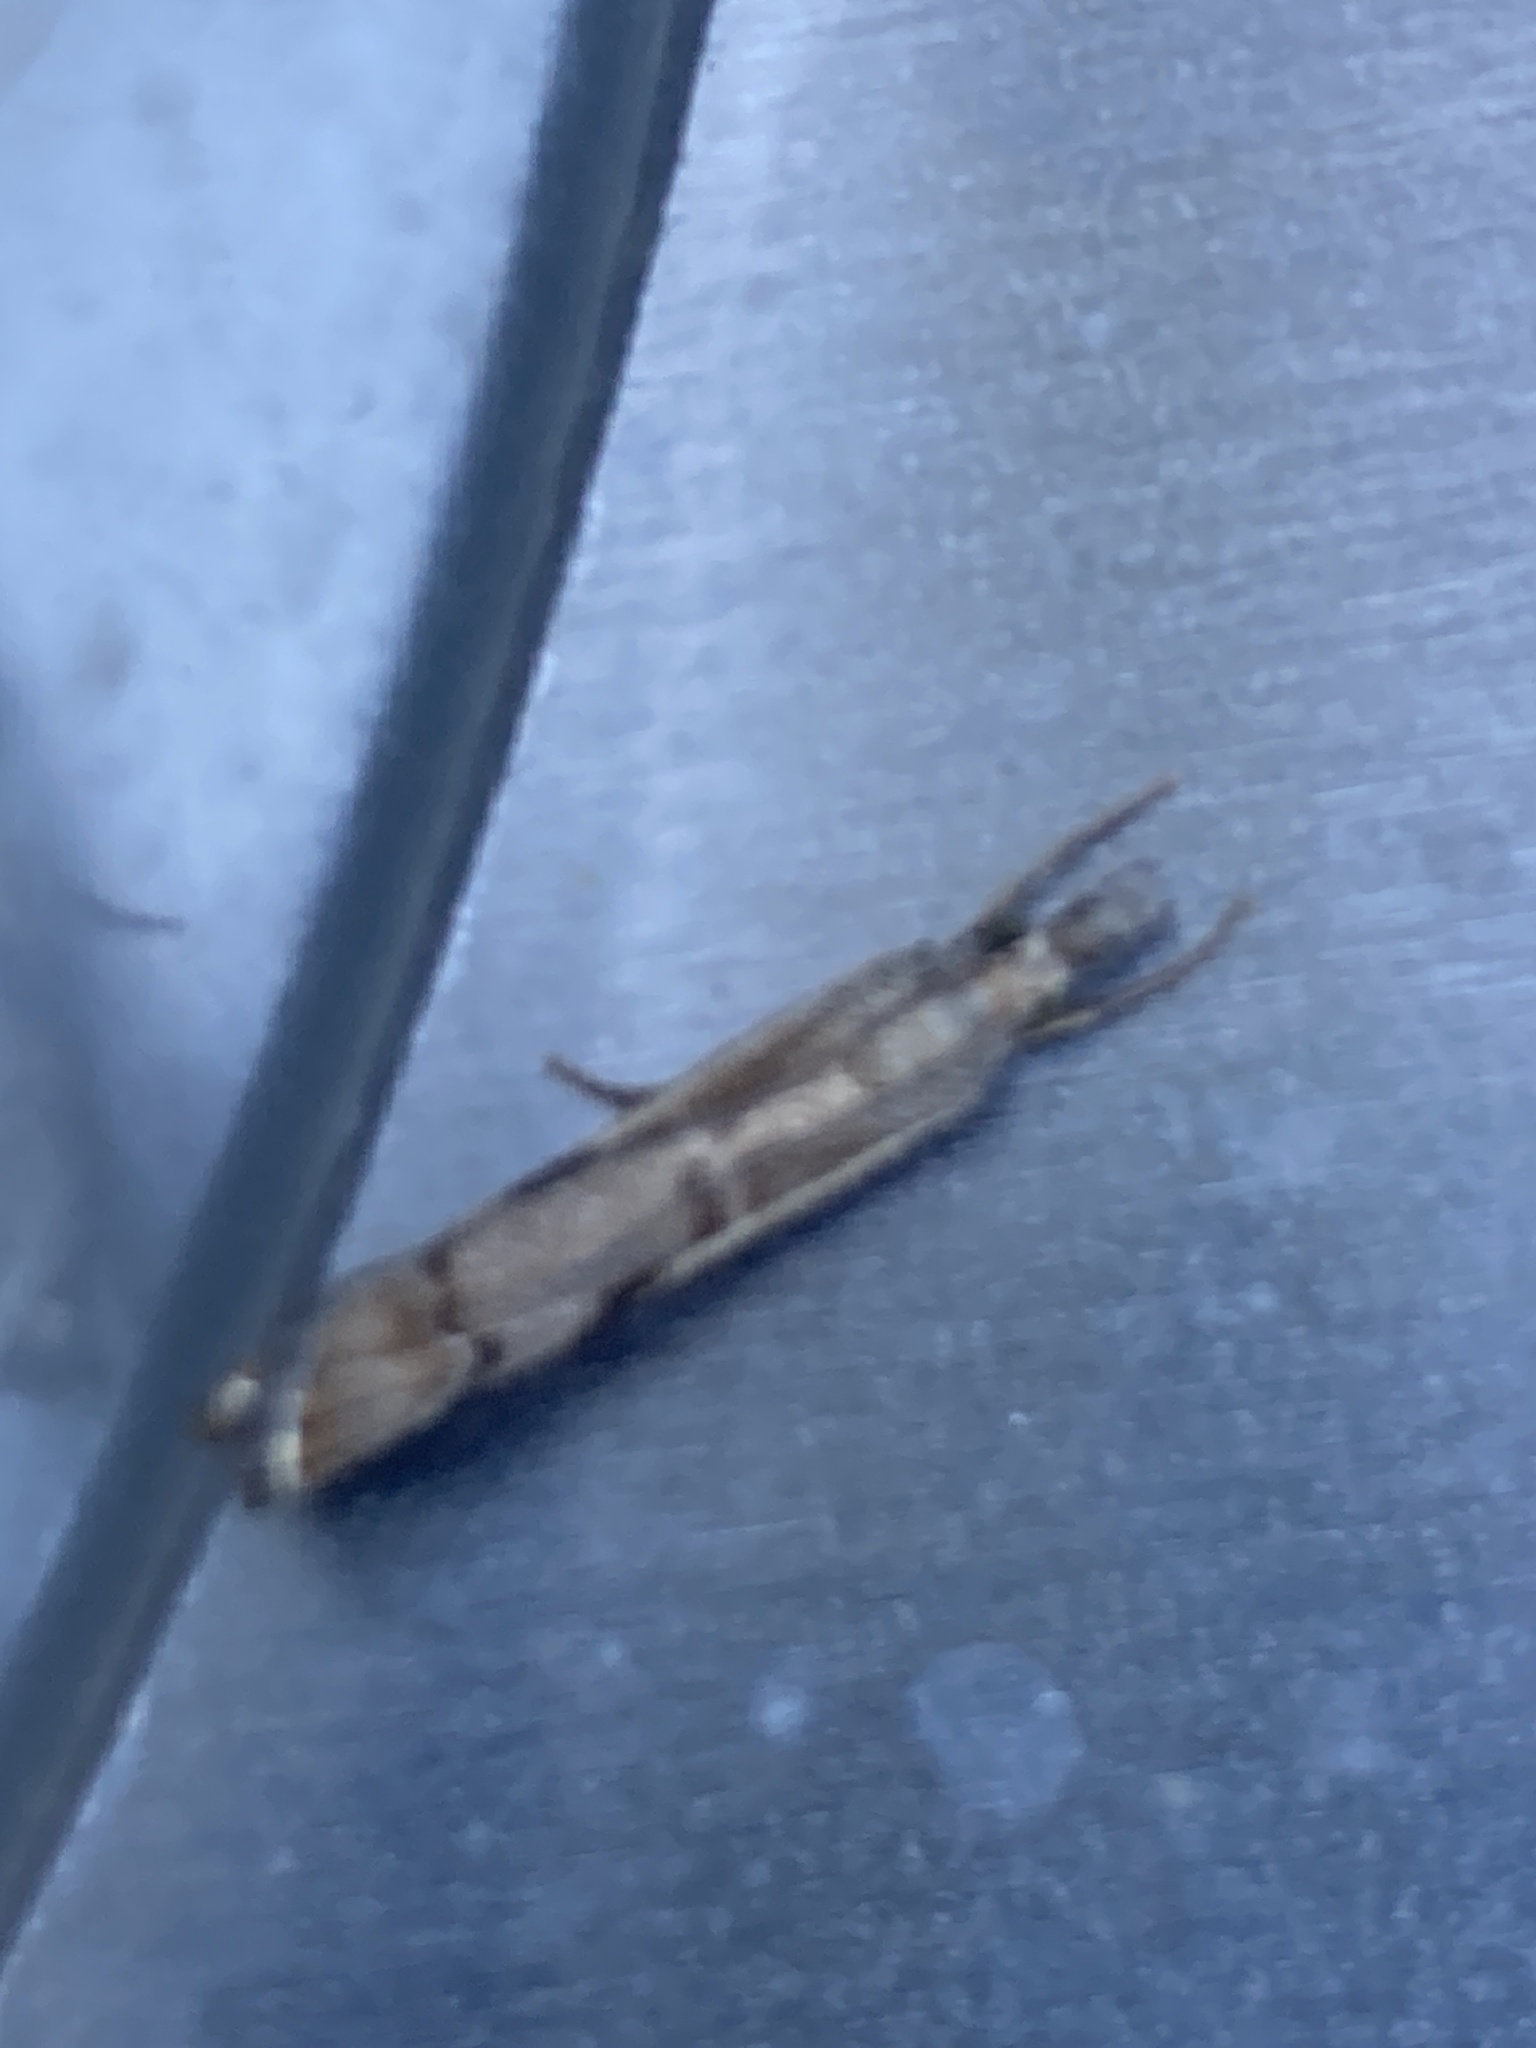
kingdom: Animalia
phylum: Arthropoda
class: Insecta
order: Lepidoptera
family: Crambidae
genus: Agriphila
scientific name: Agriphila geniculea
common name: Elbow-stripe grass-veneer
